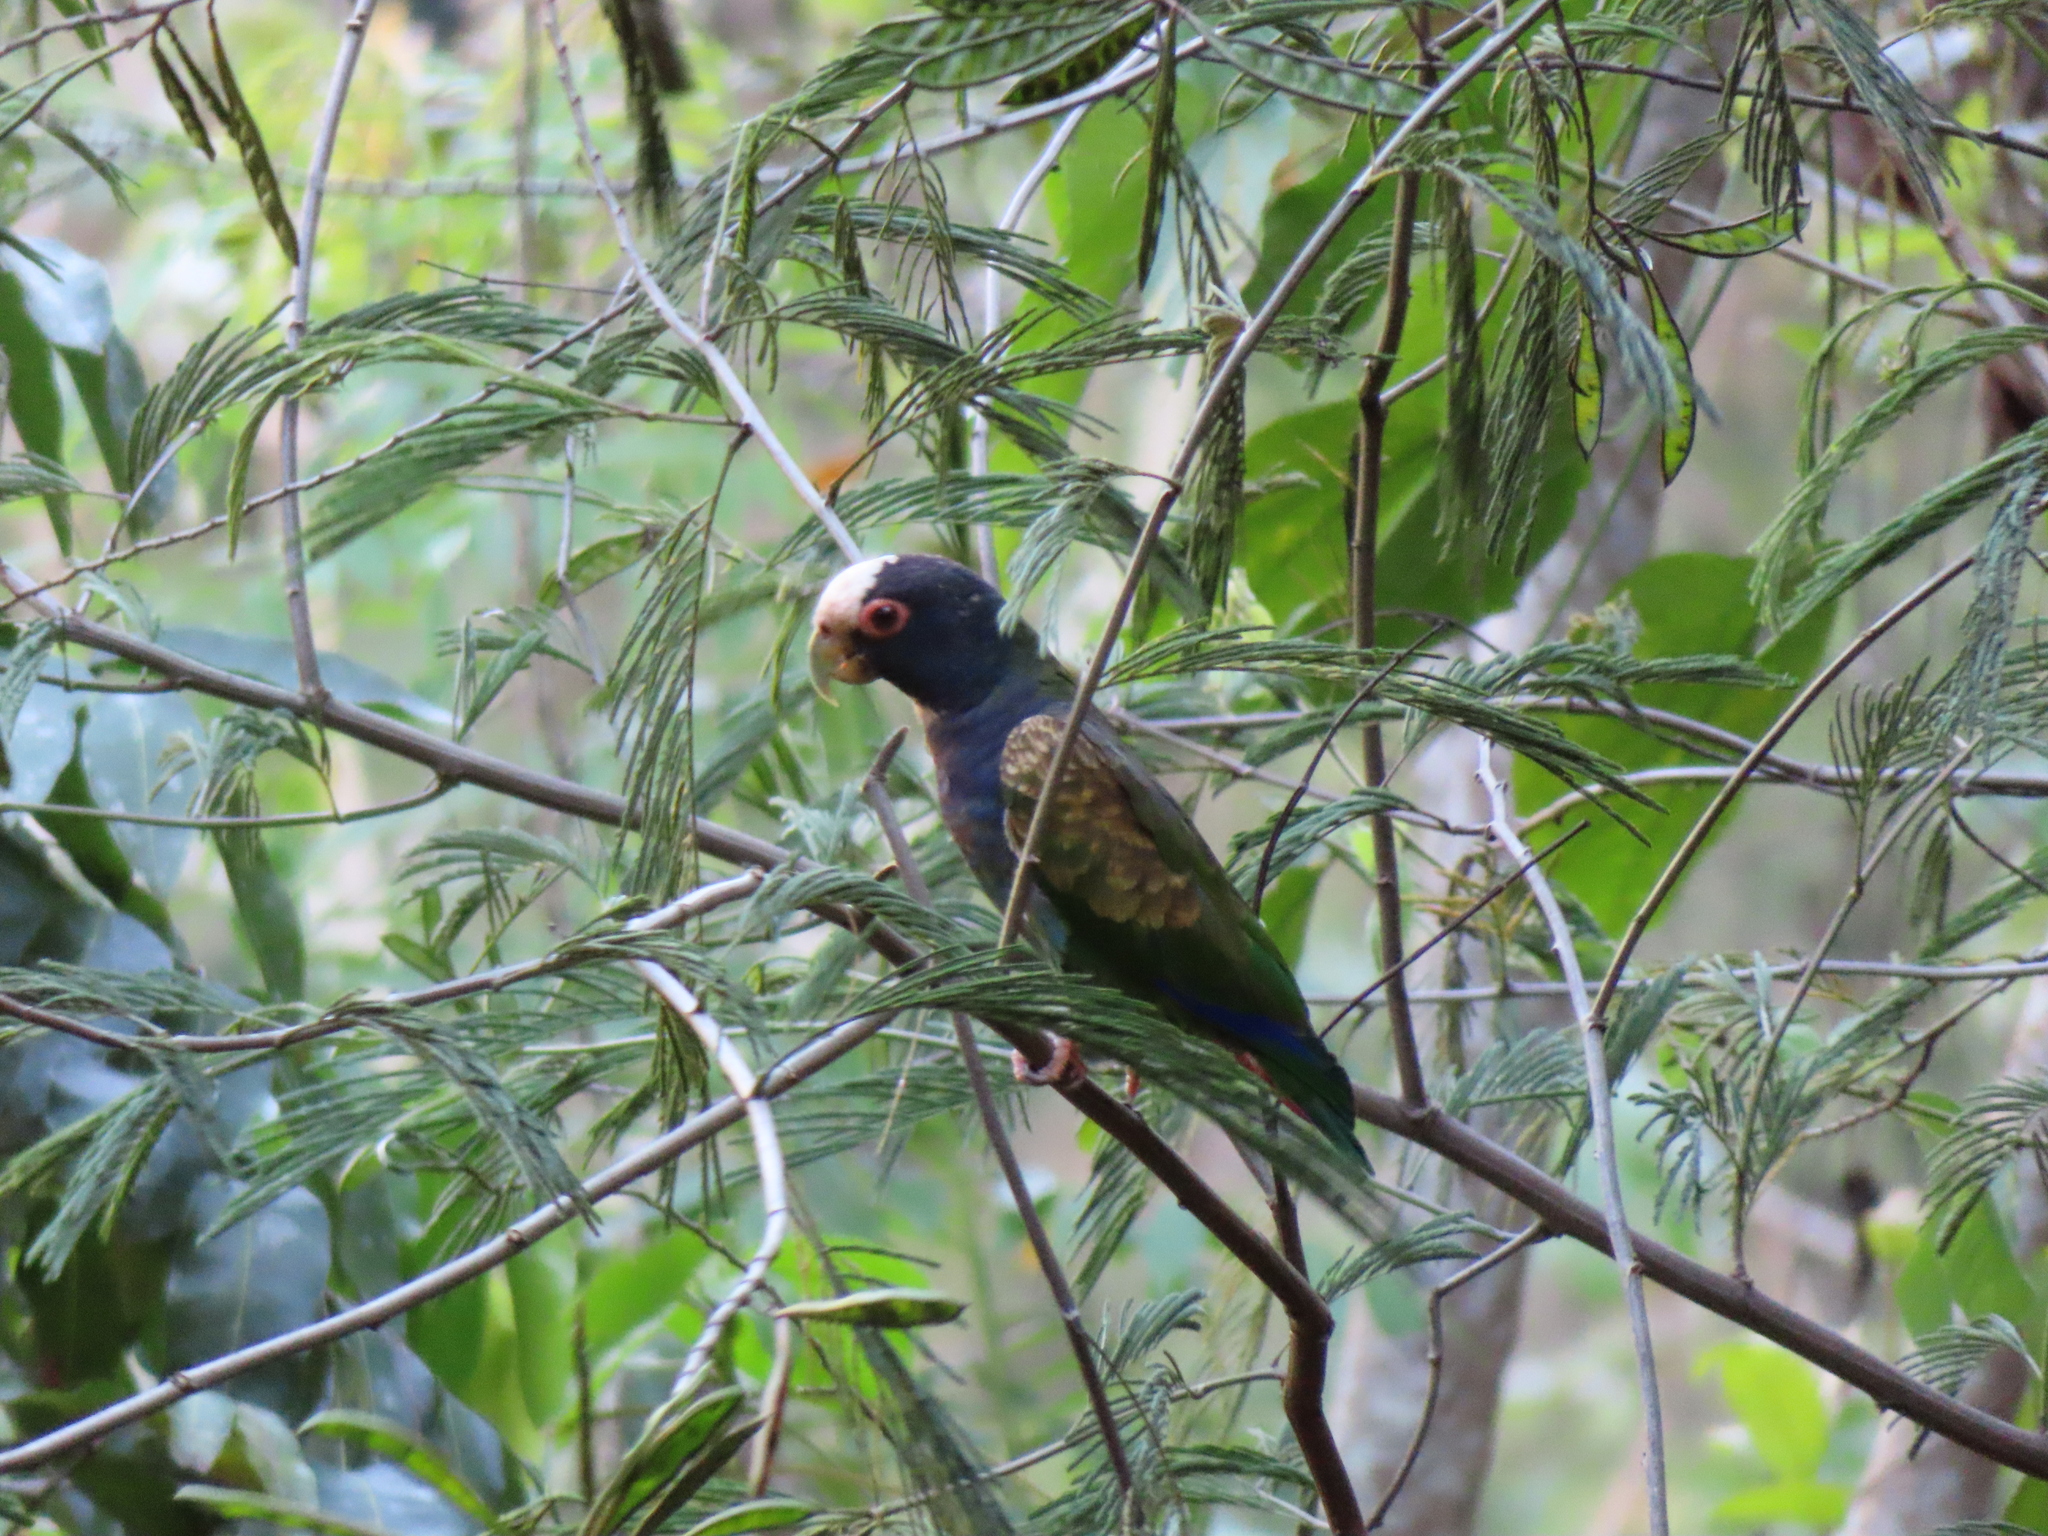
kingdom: Animalia
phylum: Chordata
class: Aves
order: Psittaciformes
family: Psittacidae
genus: Pionus
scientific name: Pionus senilis
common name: White-crowned parrot
